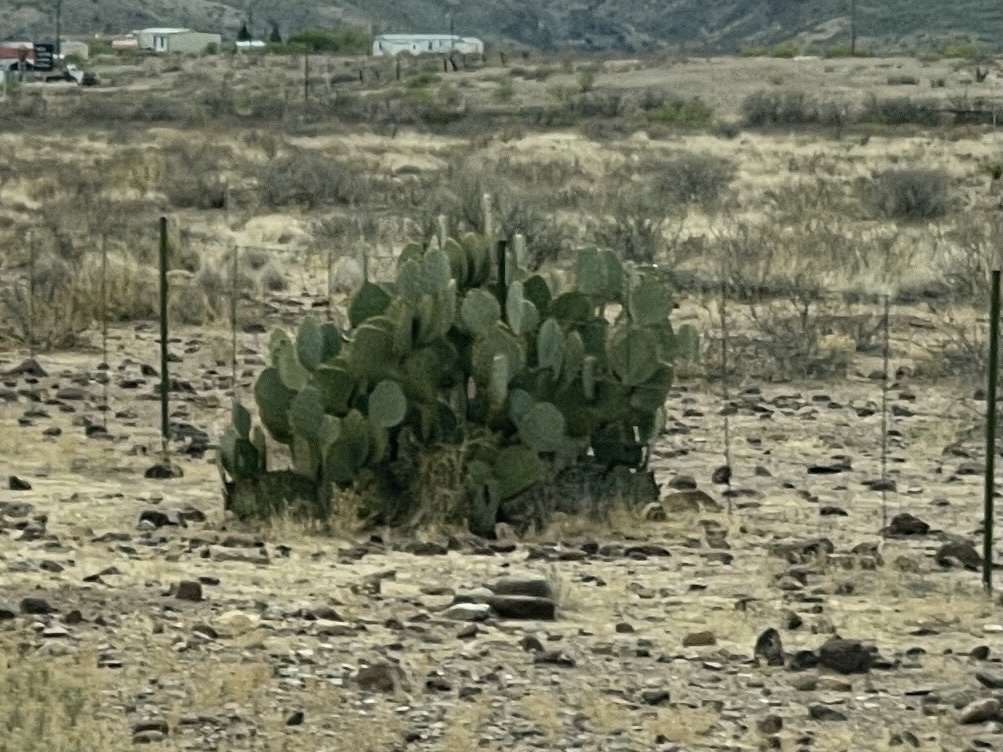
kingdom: Plantae
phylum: Tracheophyta
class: Magnoliopsida
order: Caryophyllales
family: Cactaceae
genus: Opuntia
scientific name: Opuntia engelmannii
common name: Cactus-apple
